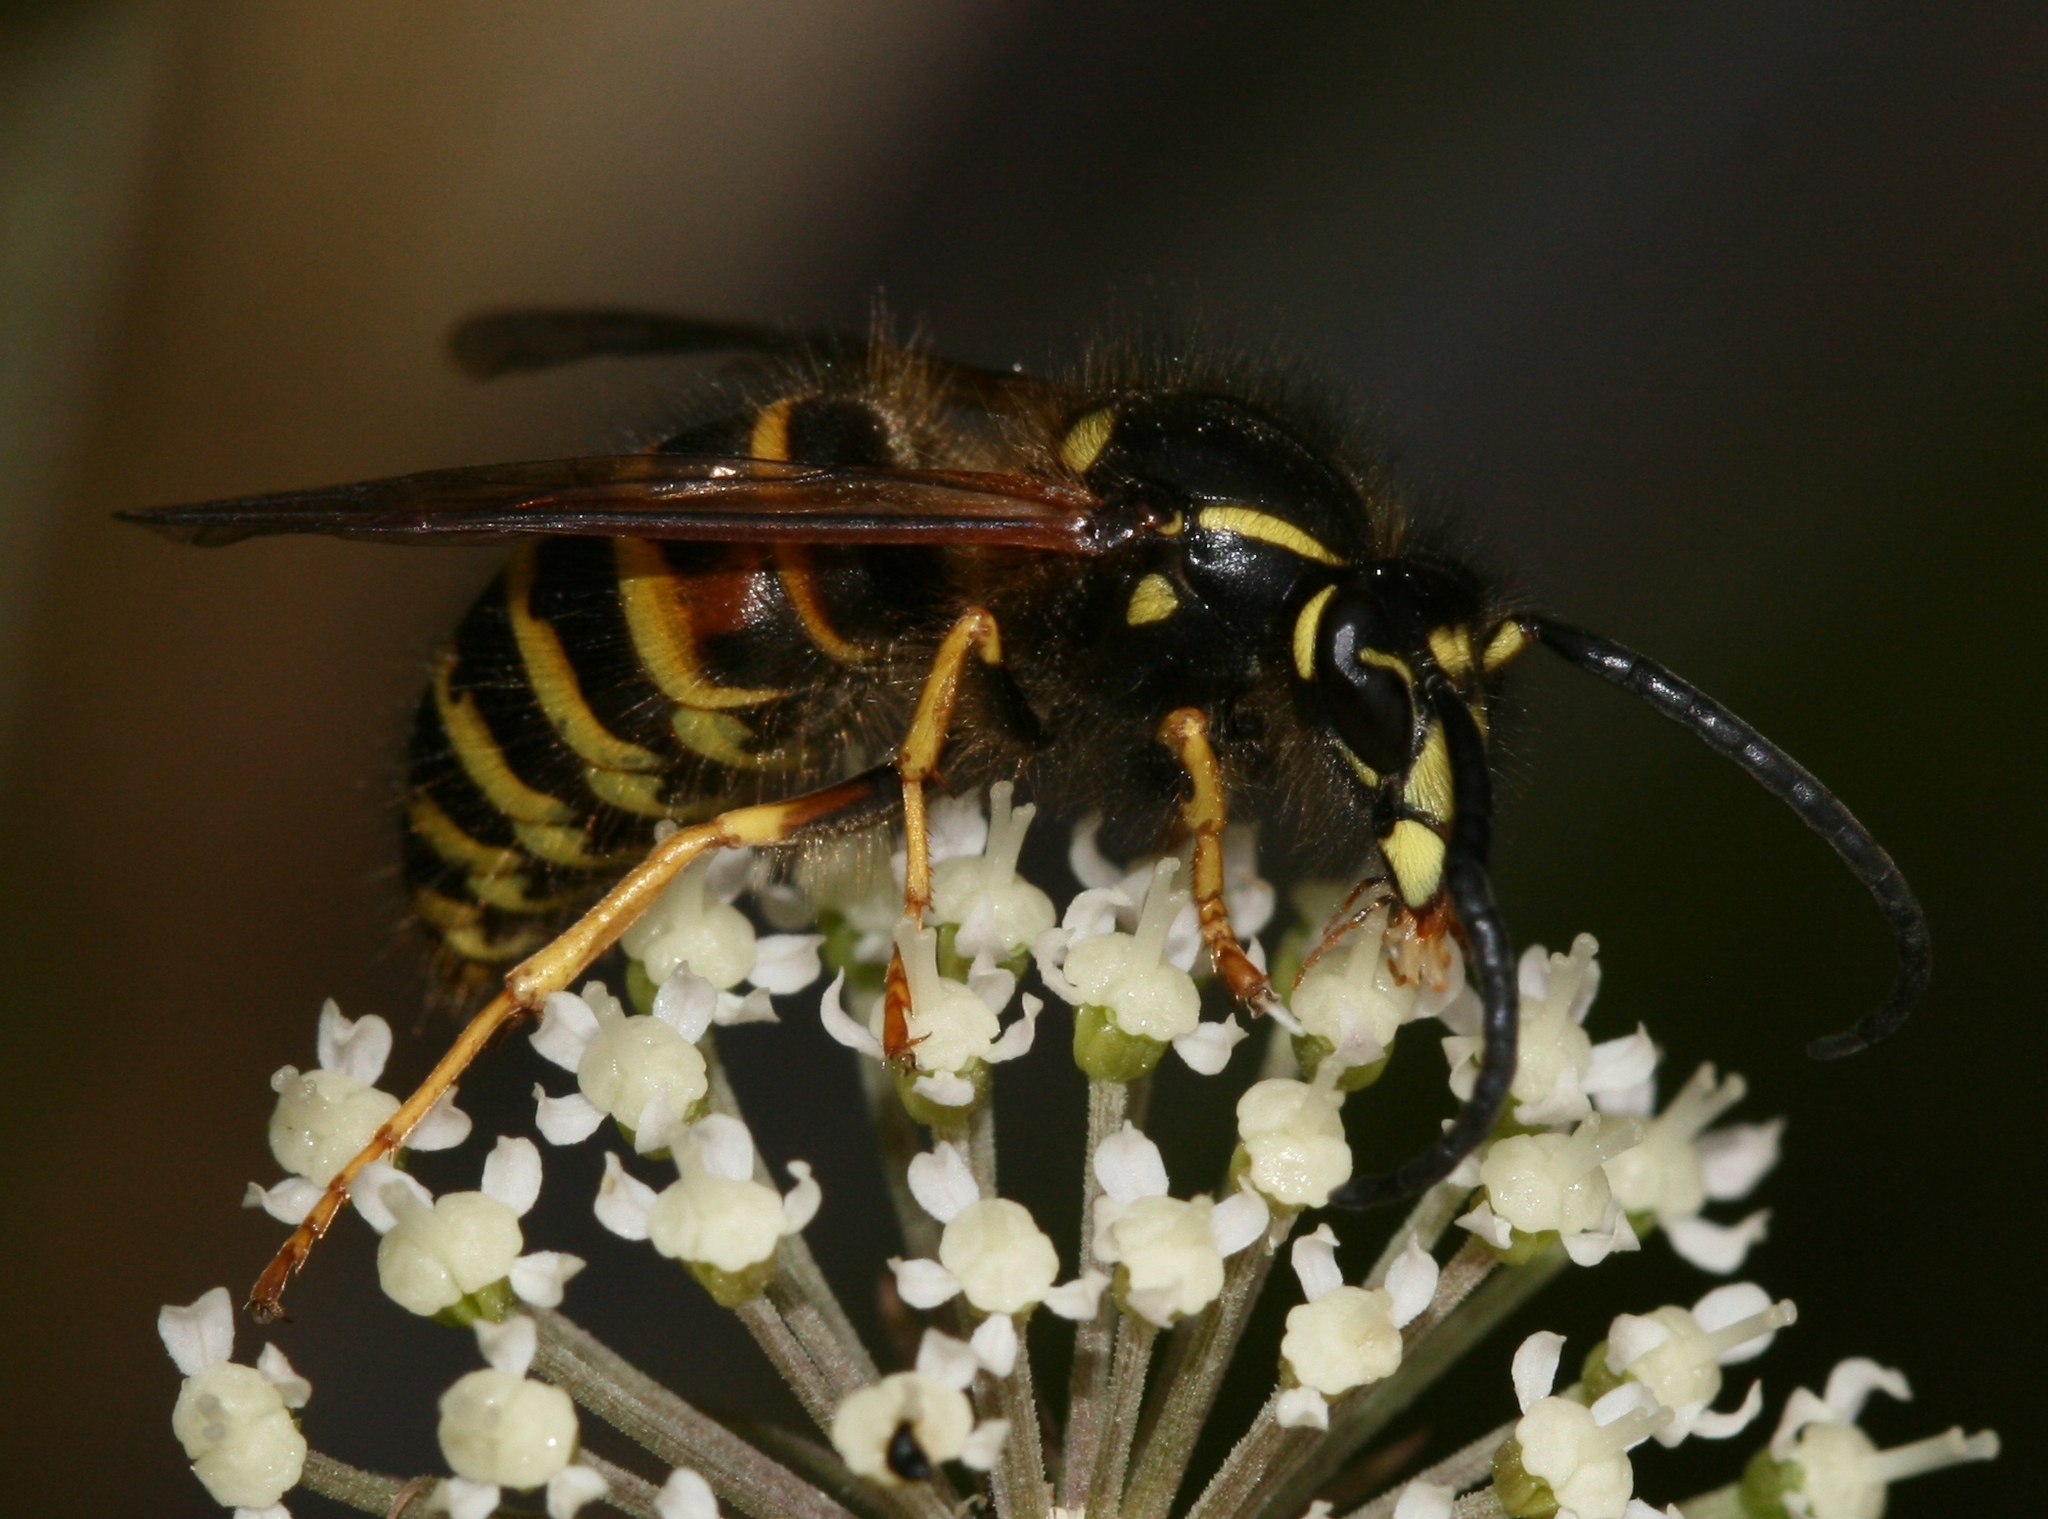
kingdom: Animalia
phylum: Arthropoda
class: Insecta
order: Hymenoptera
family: Vespidae
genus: Dolichovespula
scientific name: Dolichovespula norwegica
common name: Norwegian wasp
